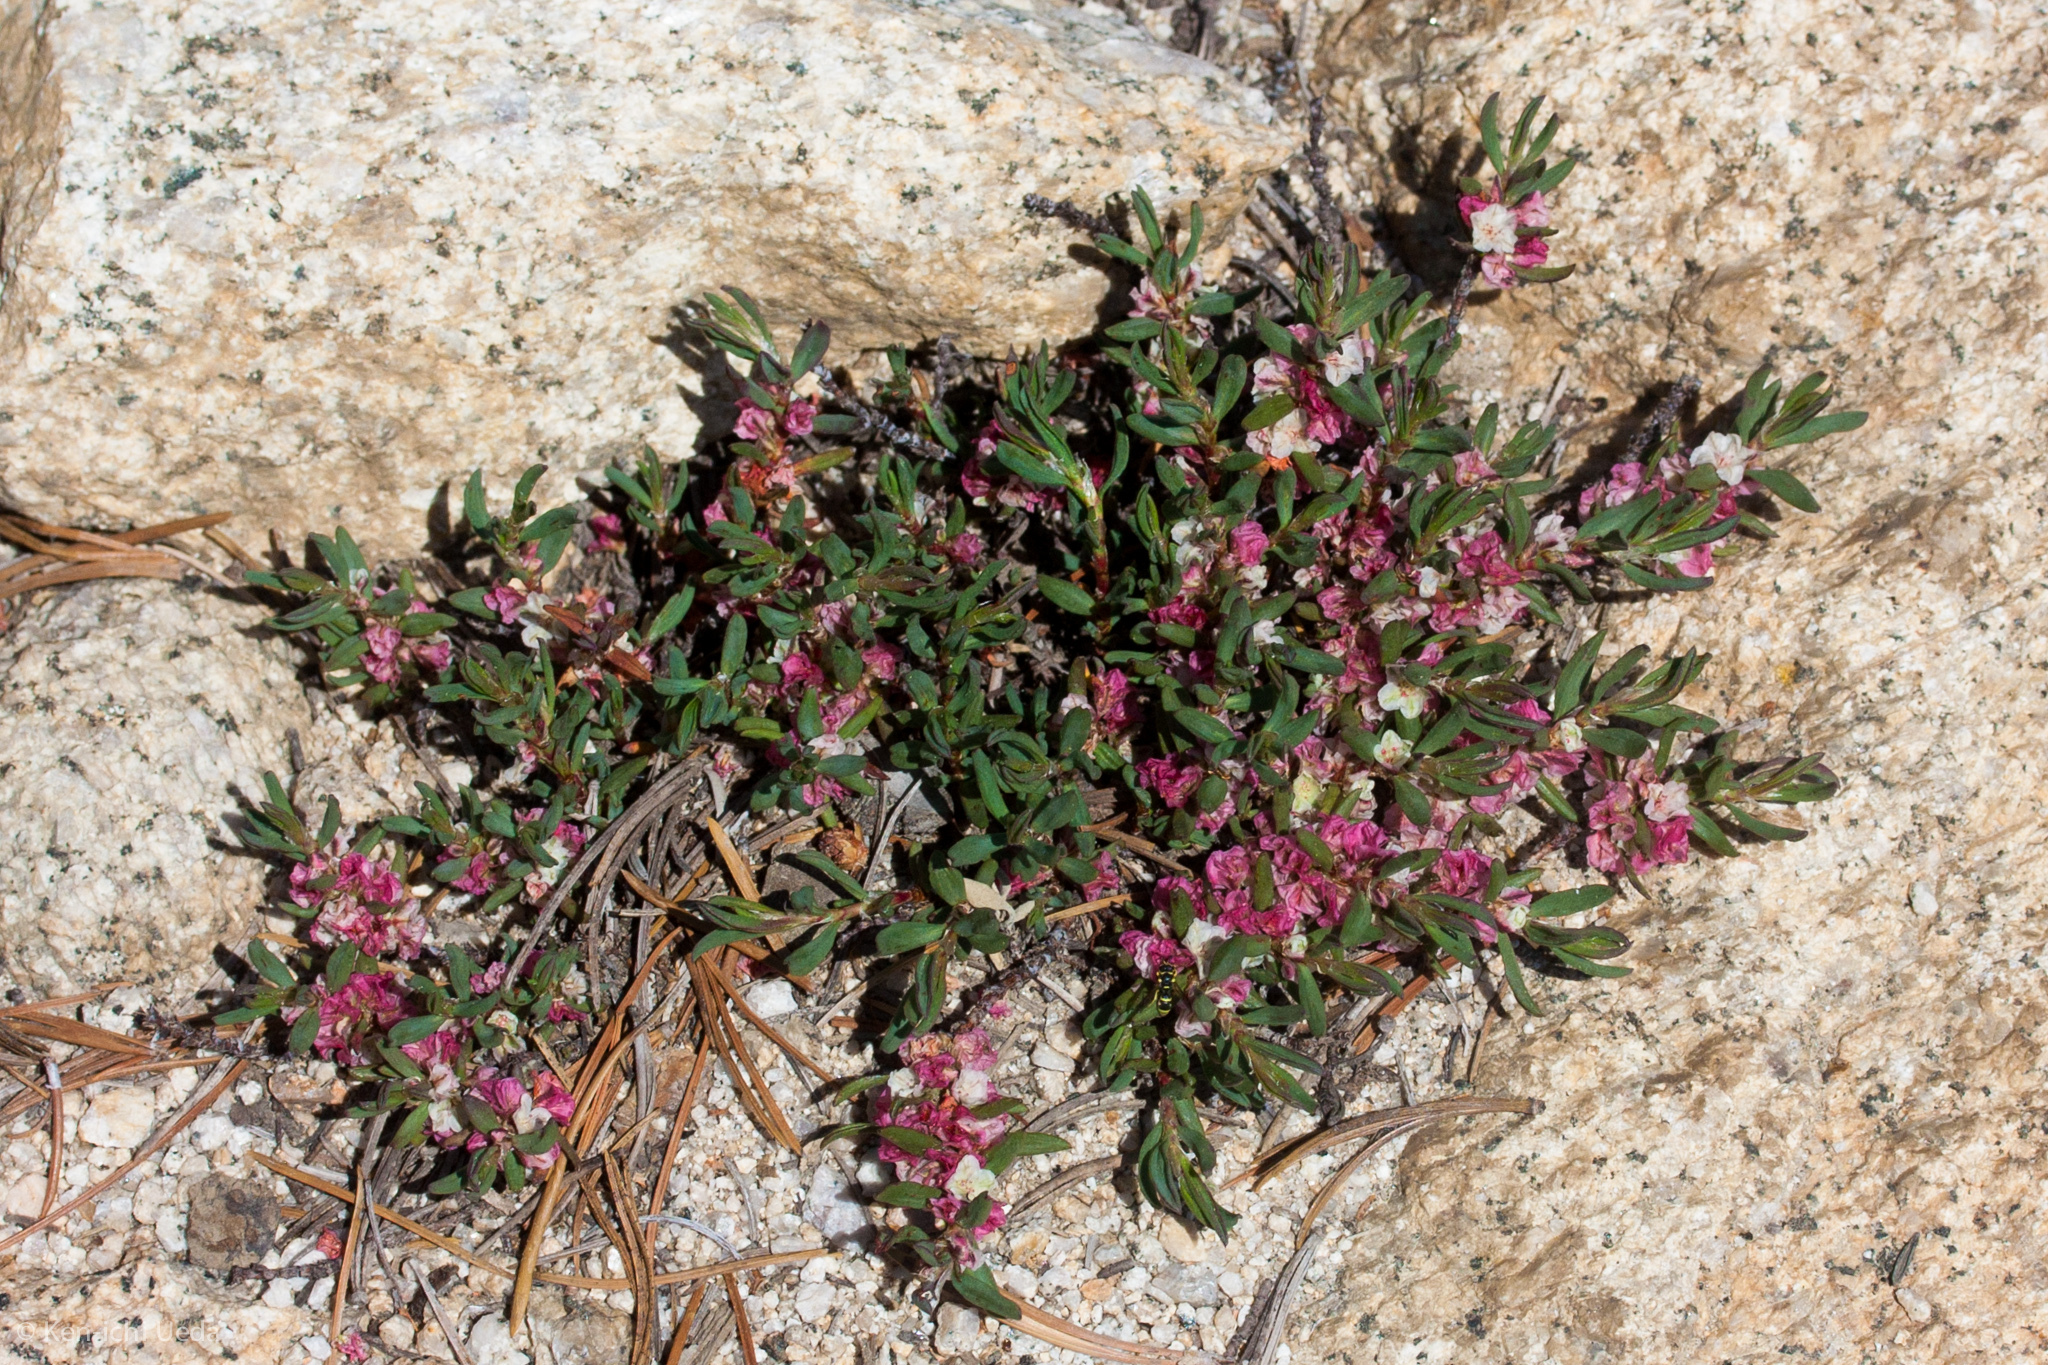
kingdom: Plantae
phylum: Tracheophyta
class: Magnoliopsida
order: Caryophyllales
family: Polygonaceae
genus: Polygonum
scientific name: Polygonum shastense
